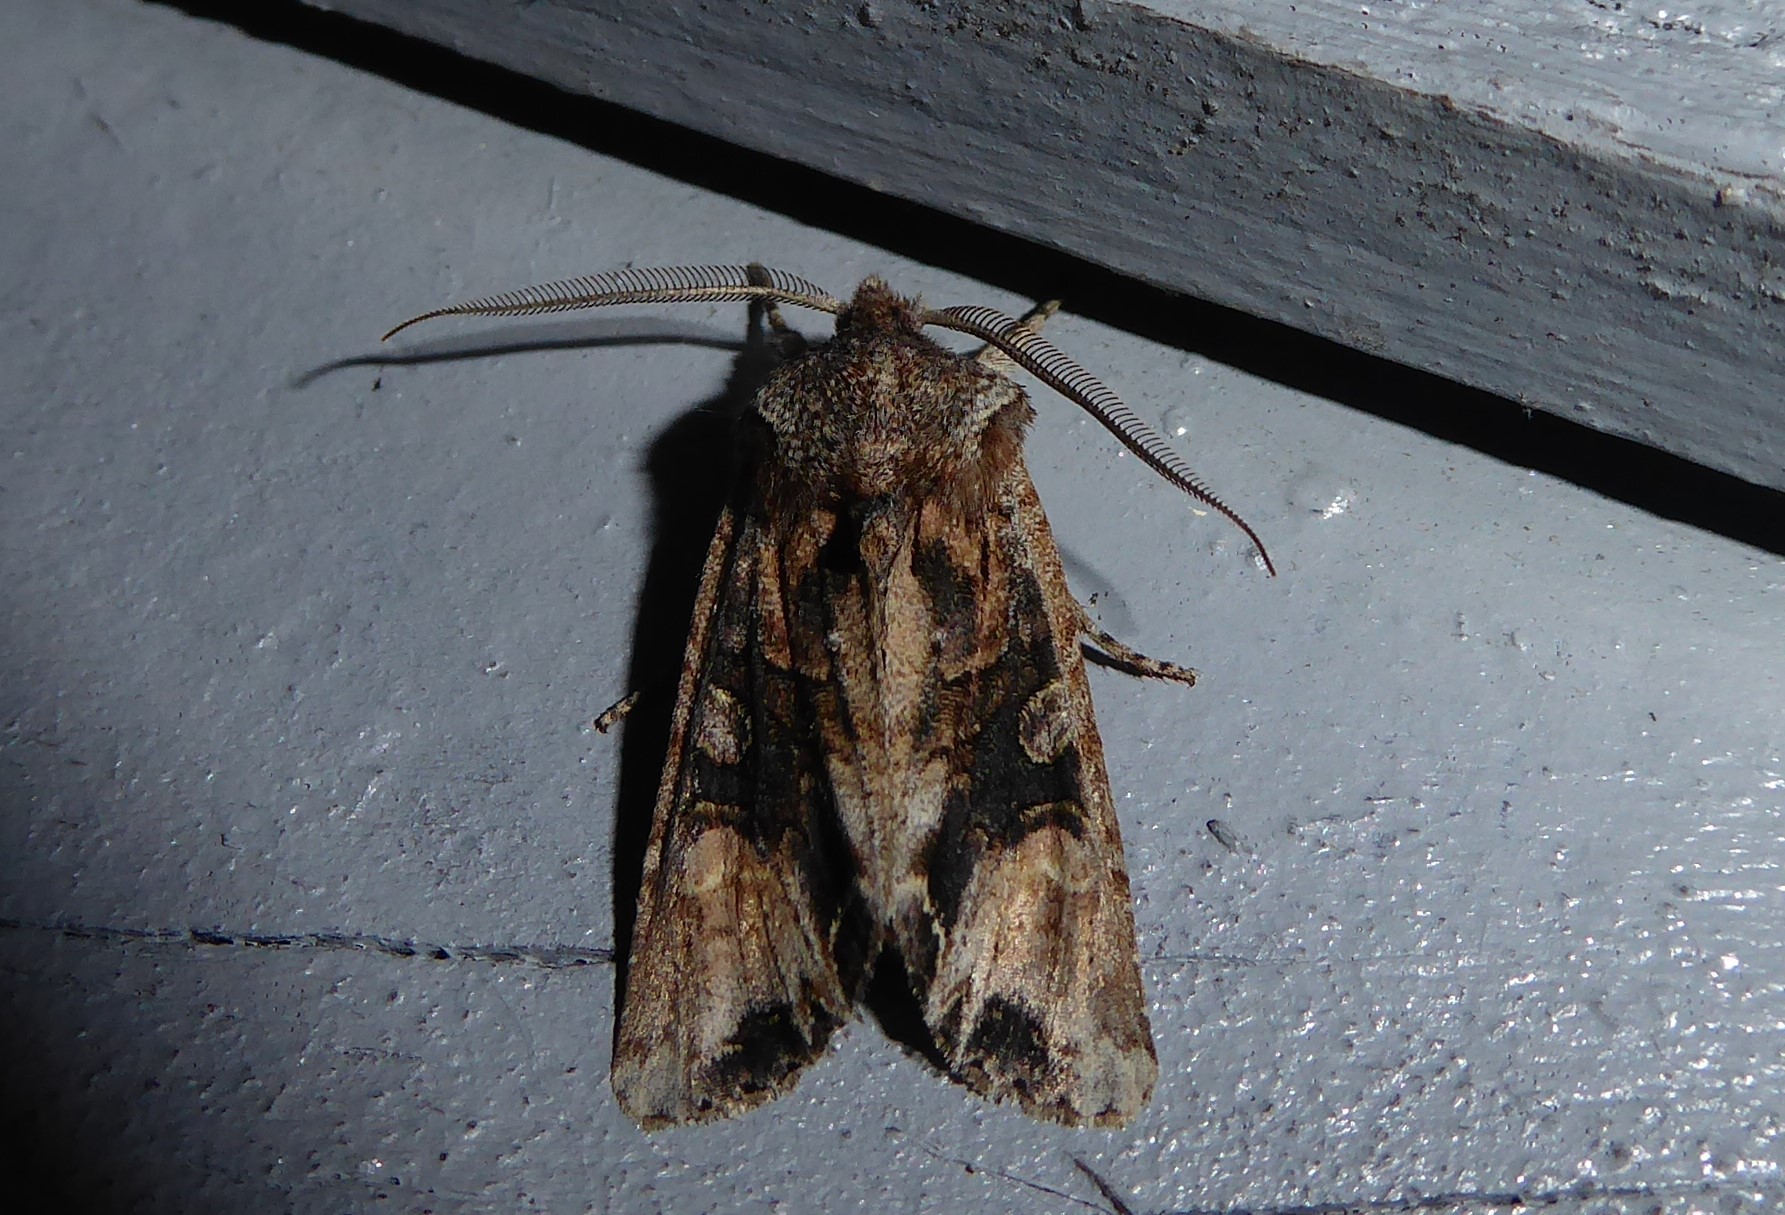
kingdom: Animalia
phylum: Arthropoda
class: Insecta
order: Lepidoptera
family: Noctuidae
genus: Ichneutica
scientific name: Ichneutica
